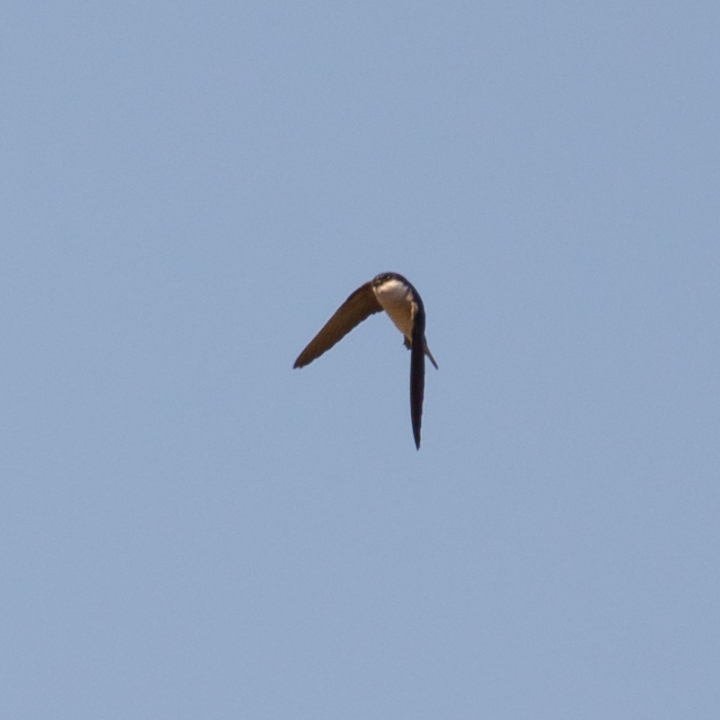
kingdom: Animalia
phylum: Chordata
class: Aves
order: Passeriformes
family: Hirundinidae
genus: Delichon
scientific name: Delichon urbicum
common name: Common house martin
